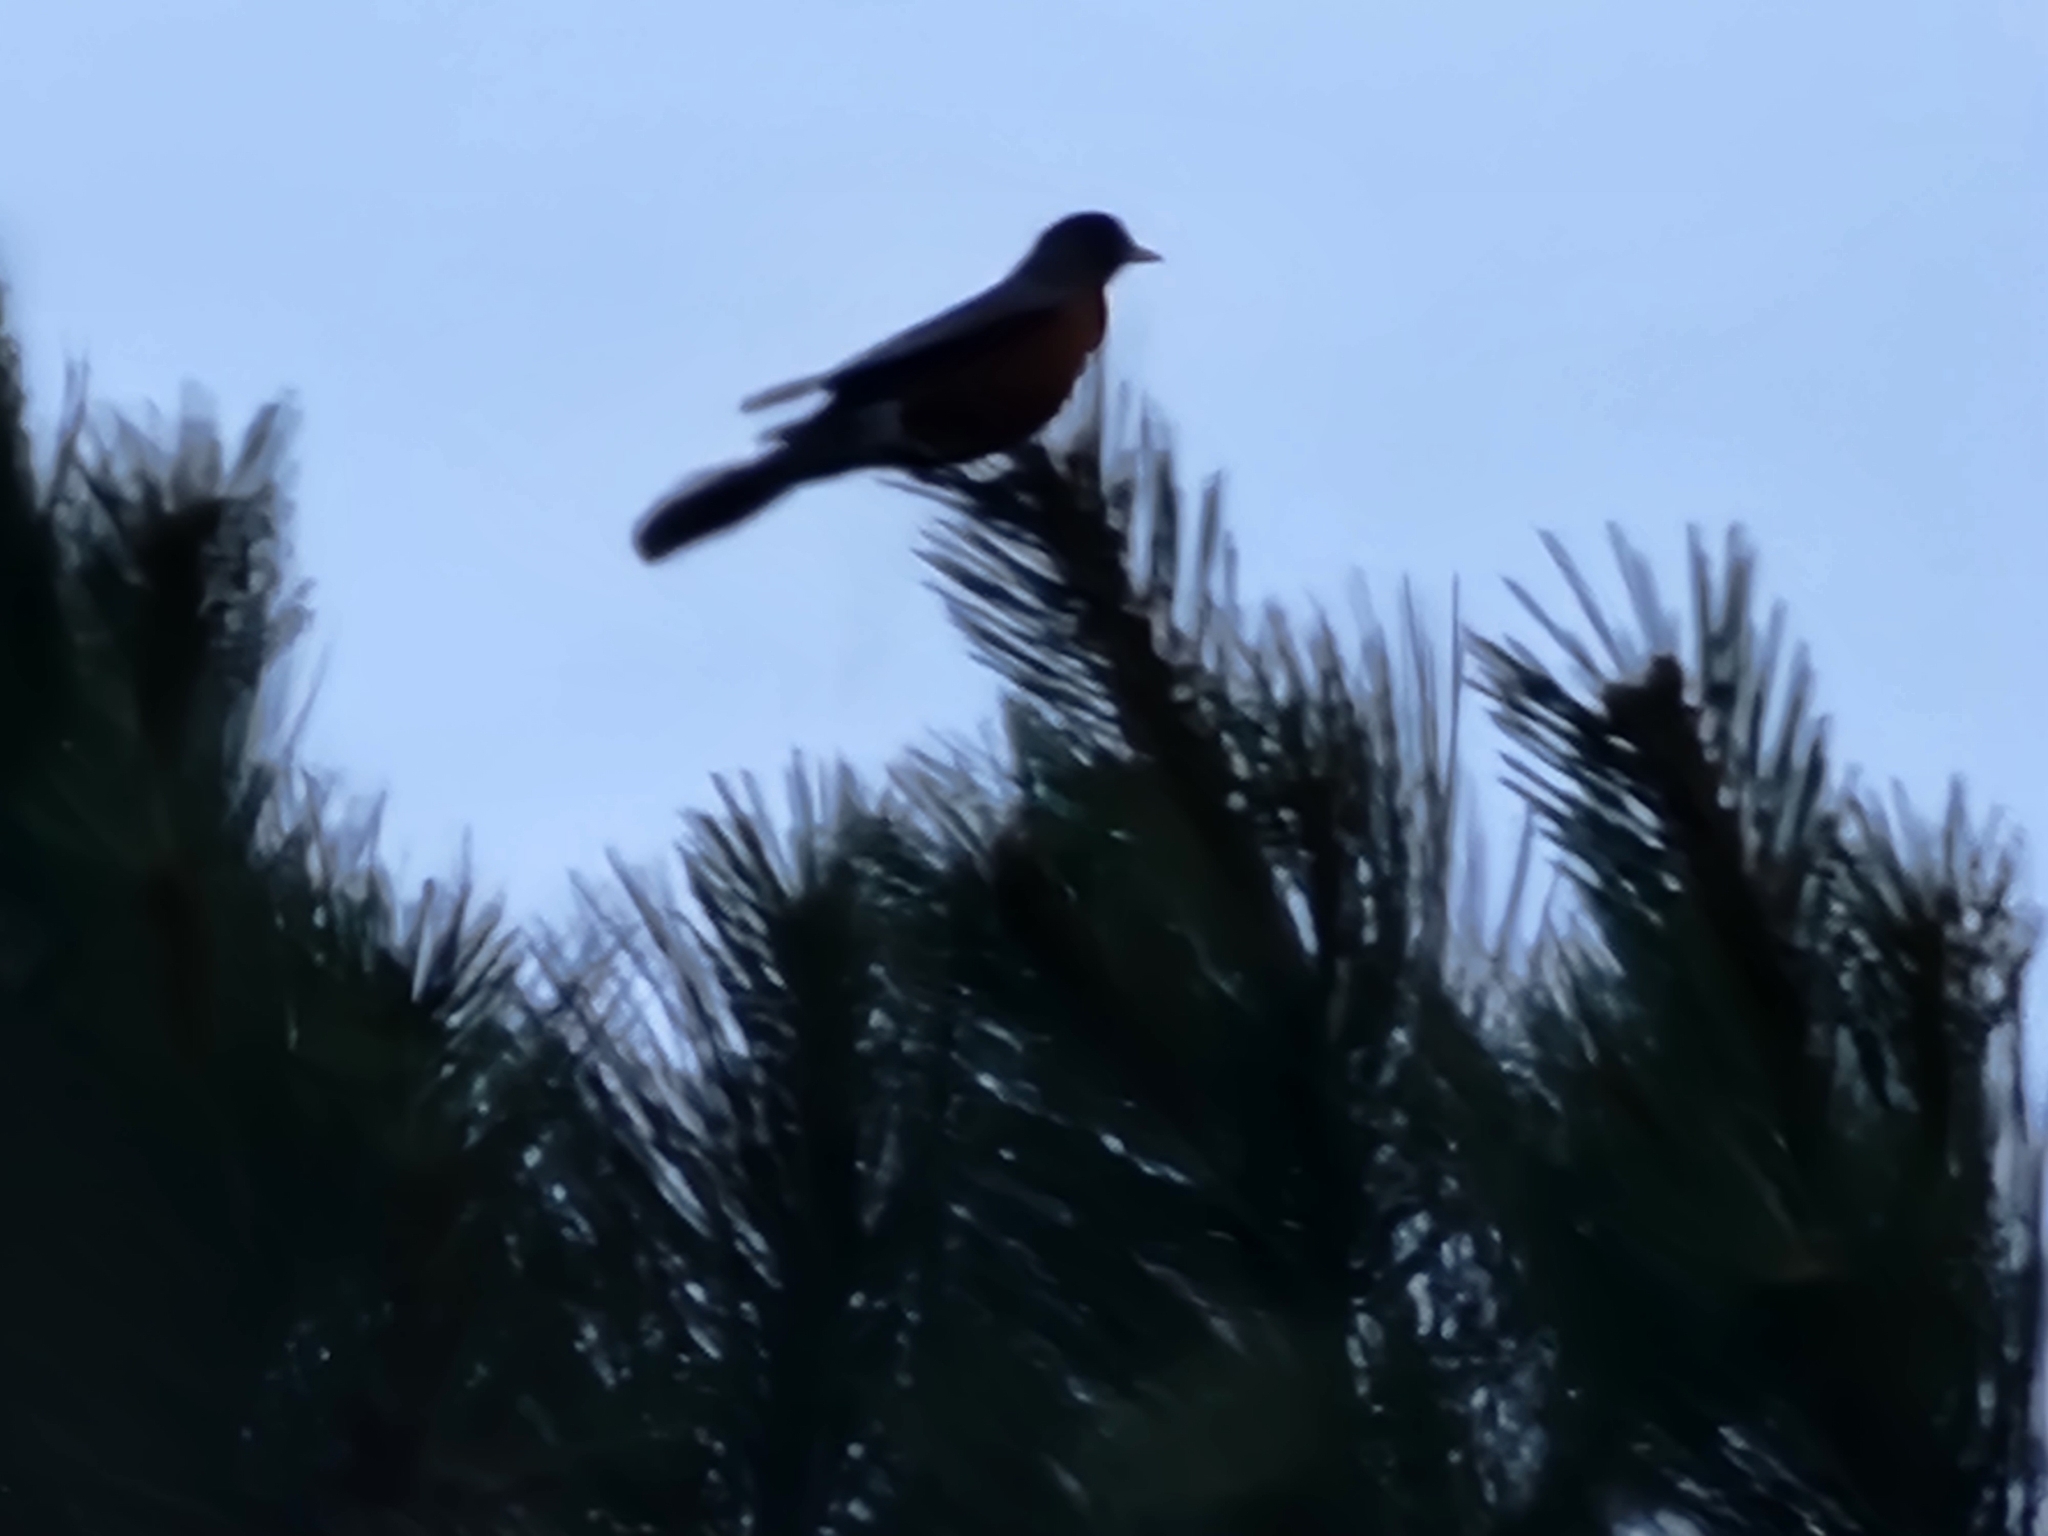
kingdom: Animalia
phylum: Chordata
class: Aves
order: Passeriformes
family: Turdidae
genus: Turdus
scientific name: Turdus migratorius
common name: American robin
